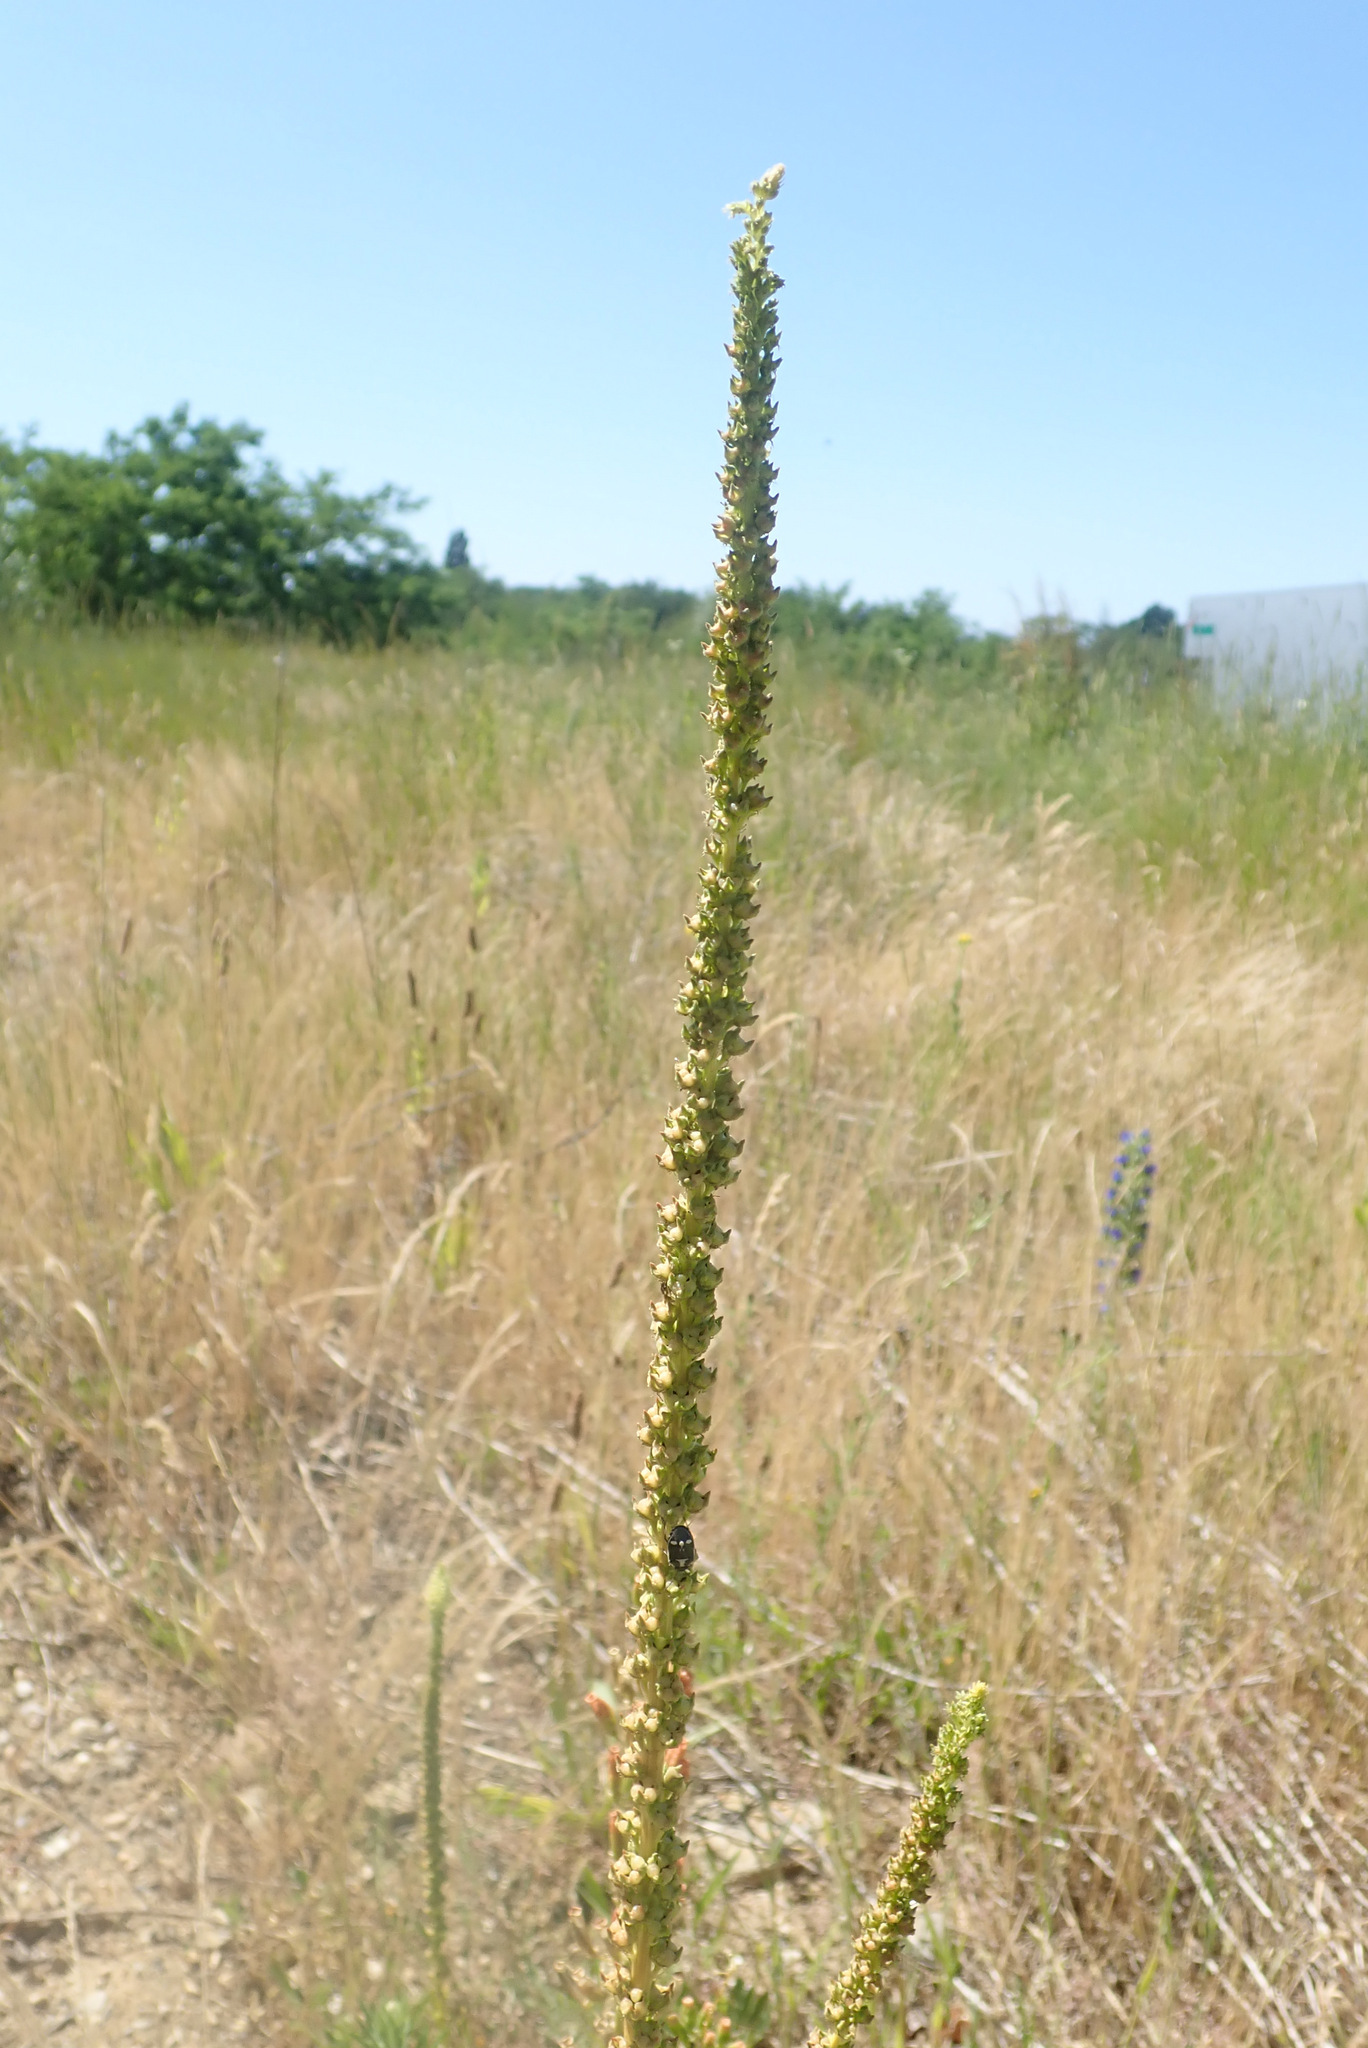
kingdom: Plantae
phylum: Tracheophyta
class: Magnoliopsida
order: Brassicales
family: Resedaceae
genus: Reseda
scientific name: Reseda luteola
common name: Weld
